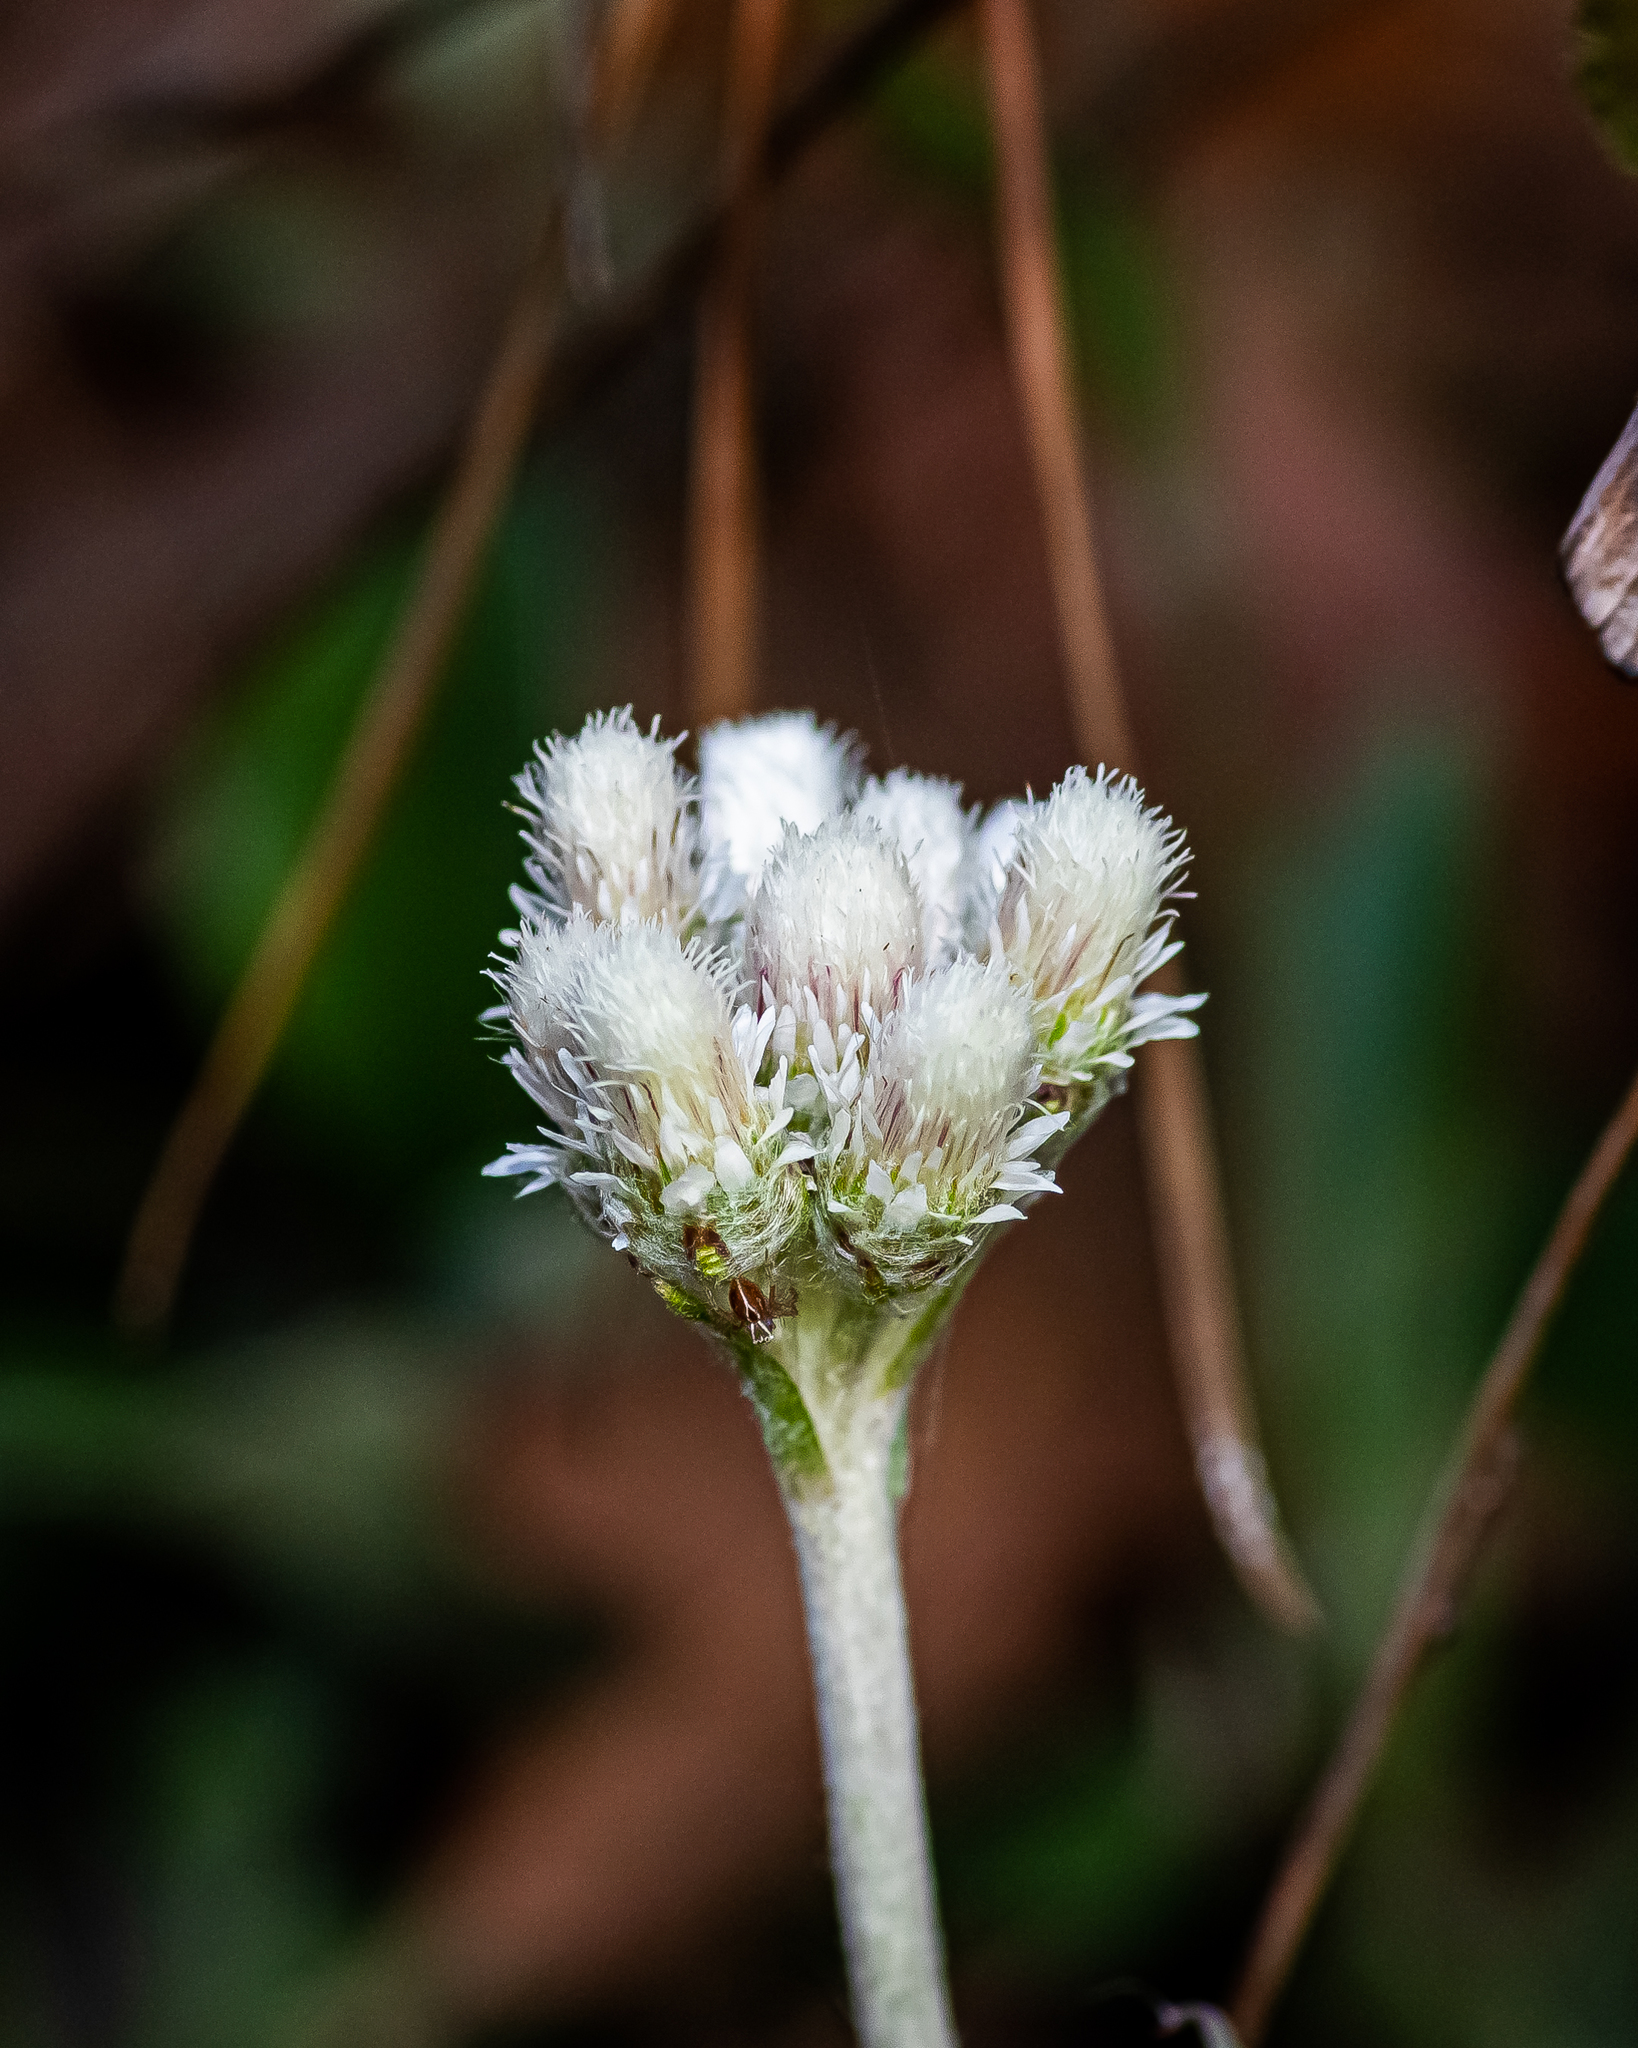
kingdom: Plantae
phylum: Tracheophyta
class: Magnoliopsida
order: Asterales
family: Asteraceae
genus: Antennaria
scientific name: Antennaria parlinii
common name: Parlin's pussytoes
